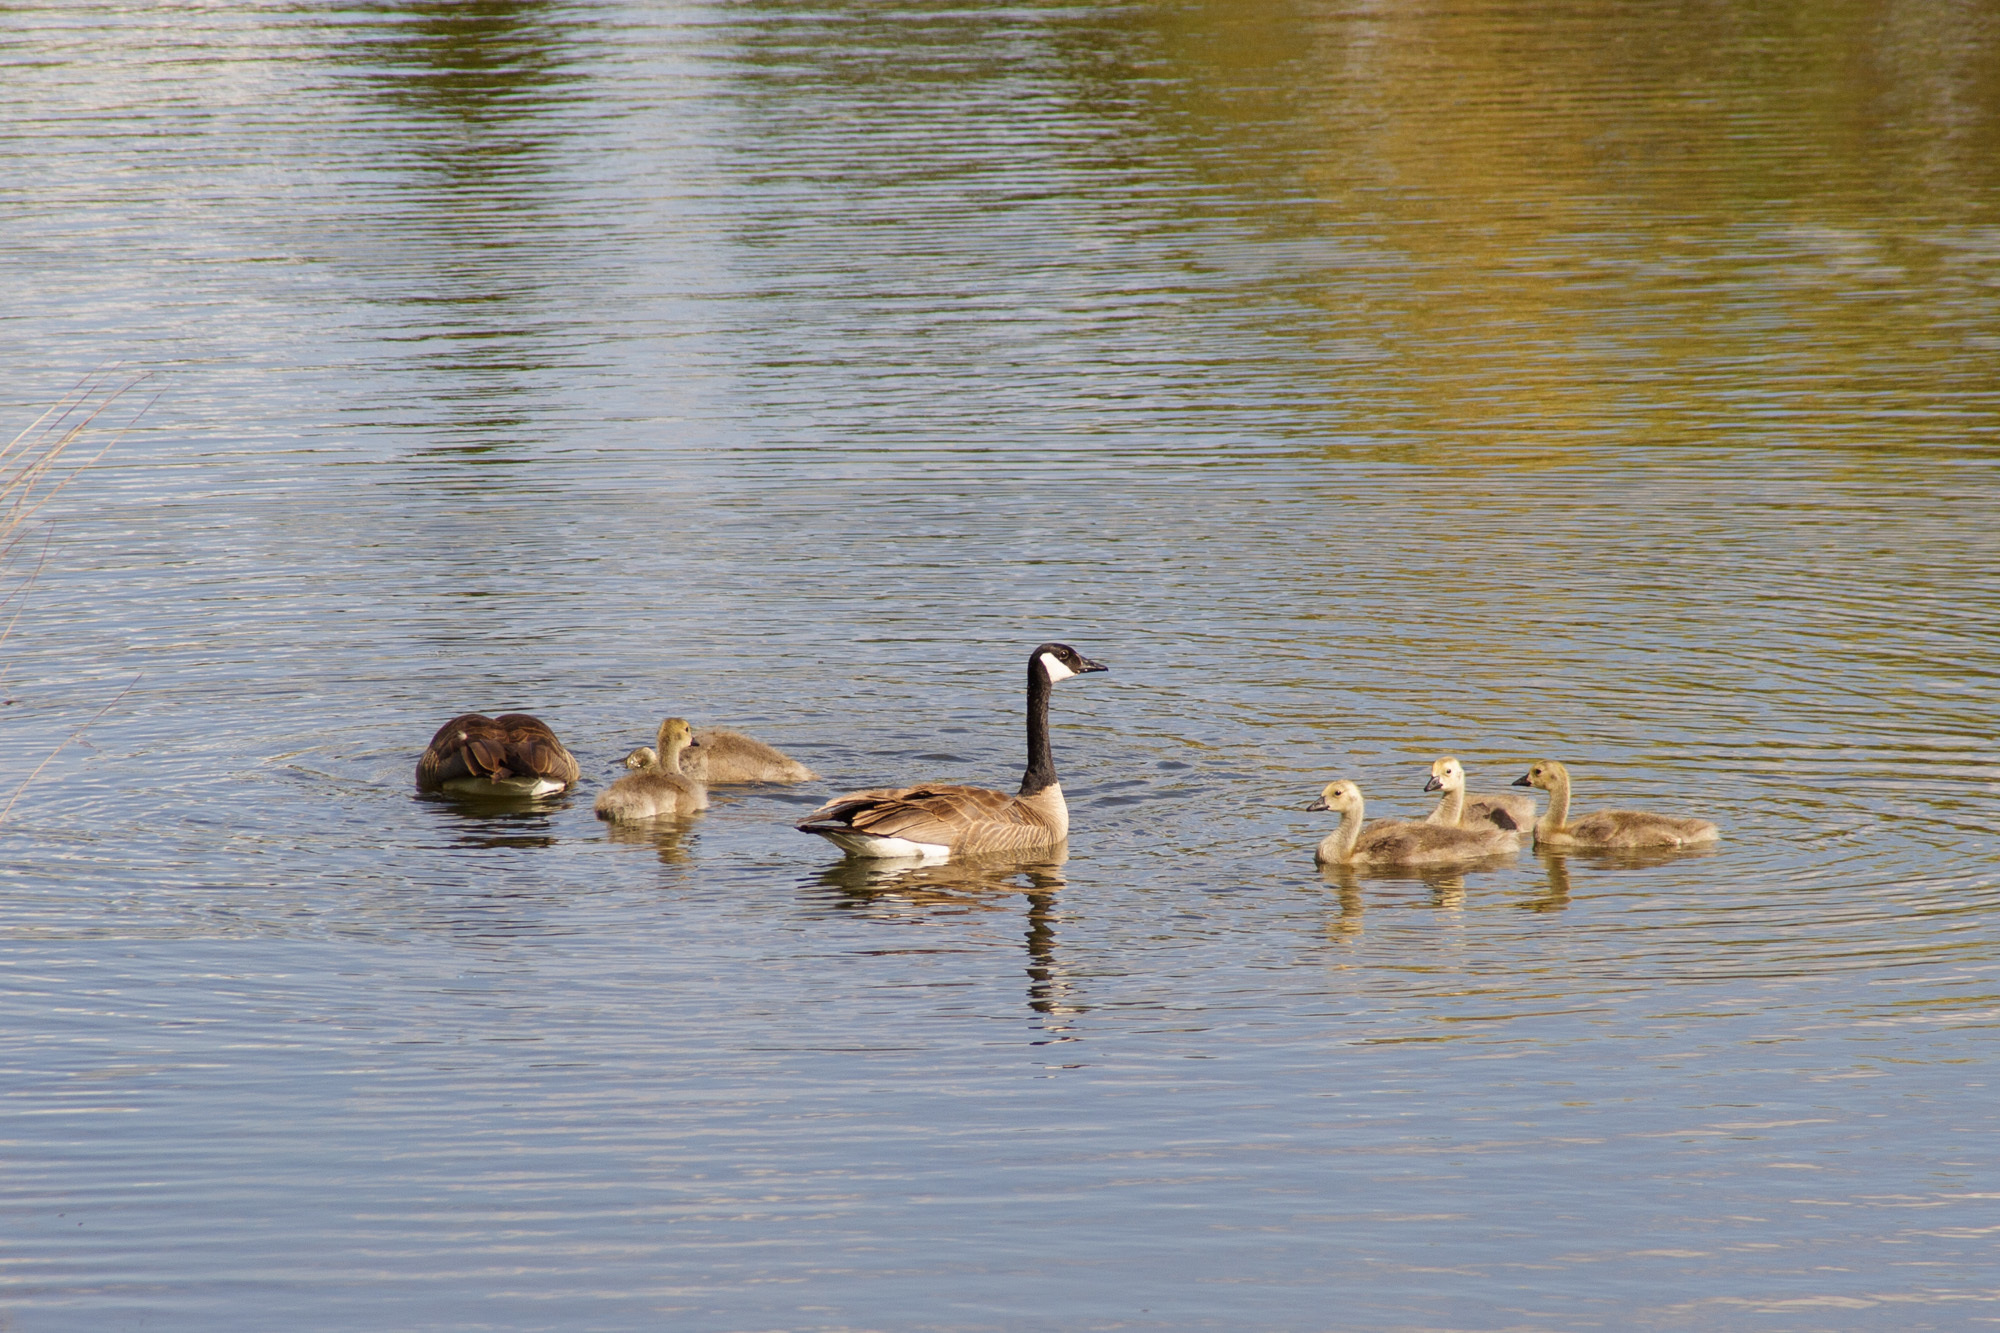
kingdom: Animalia
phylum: Chordata
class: Aves
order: Anseriformes
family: Anatidae
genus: Branta
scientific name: Branta canadensis
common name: Canada goose
